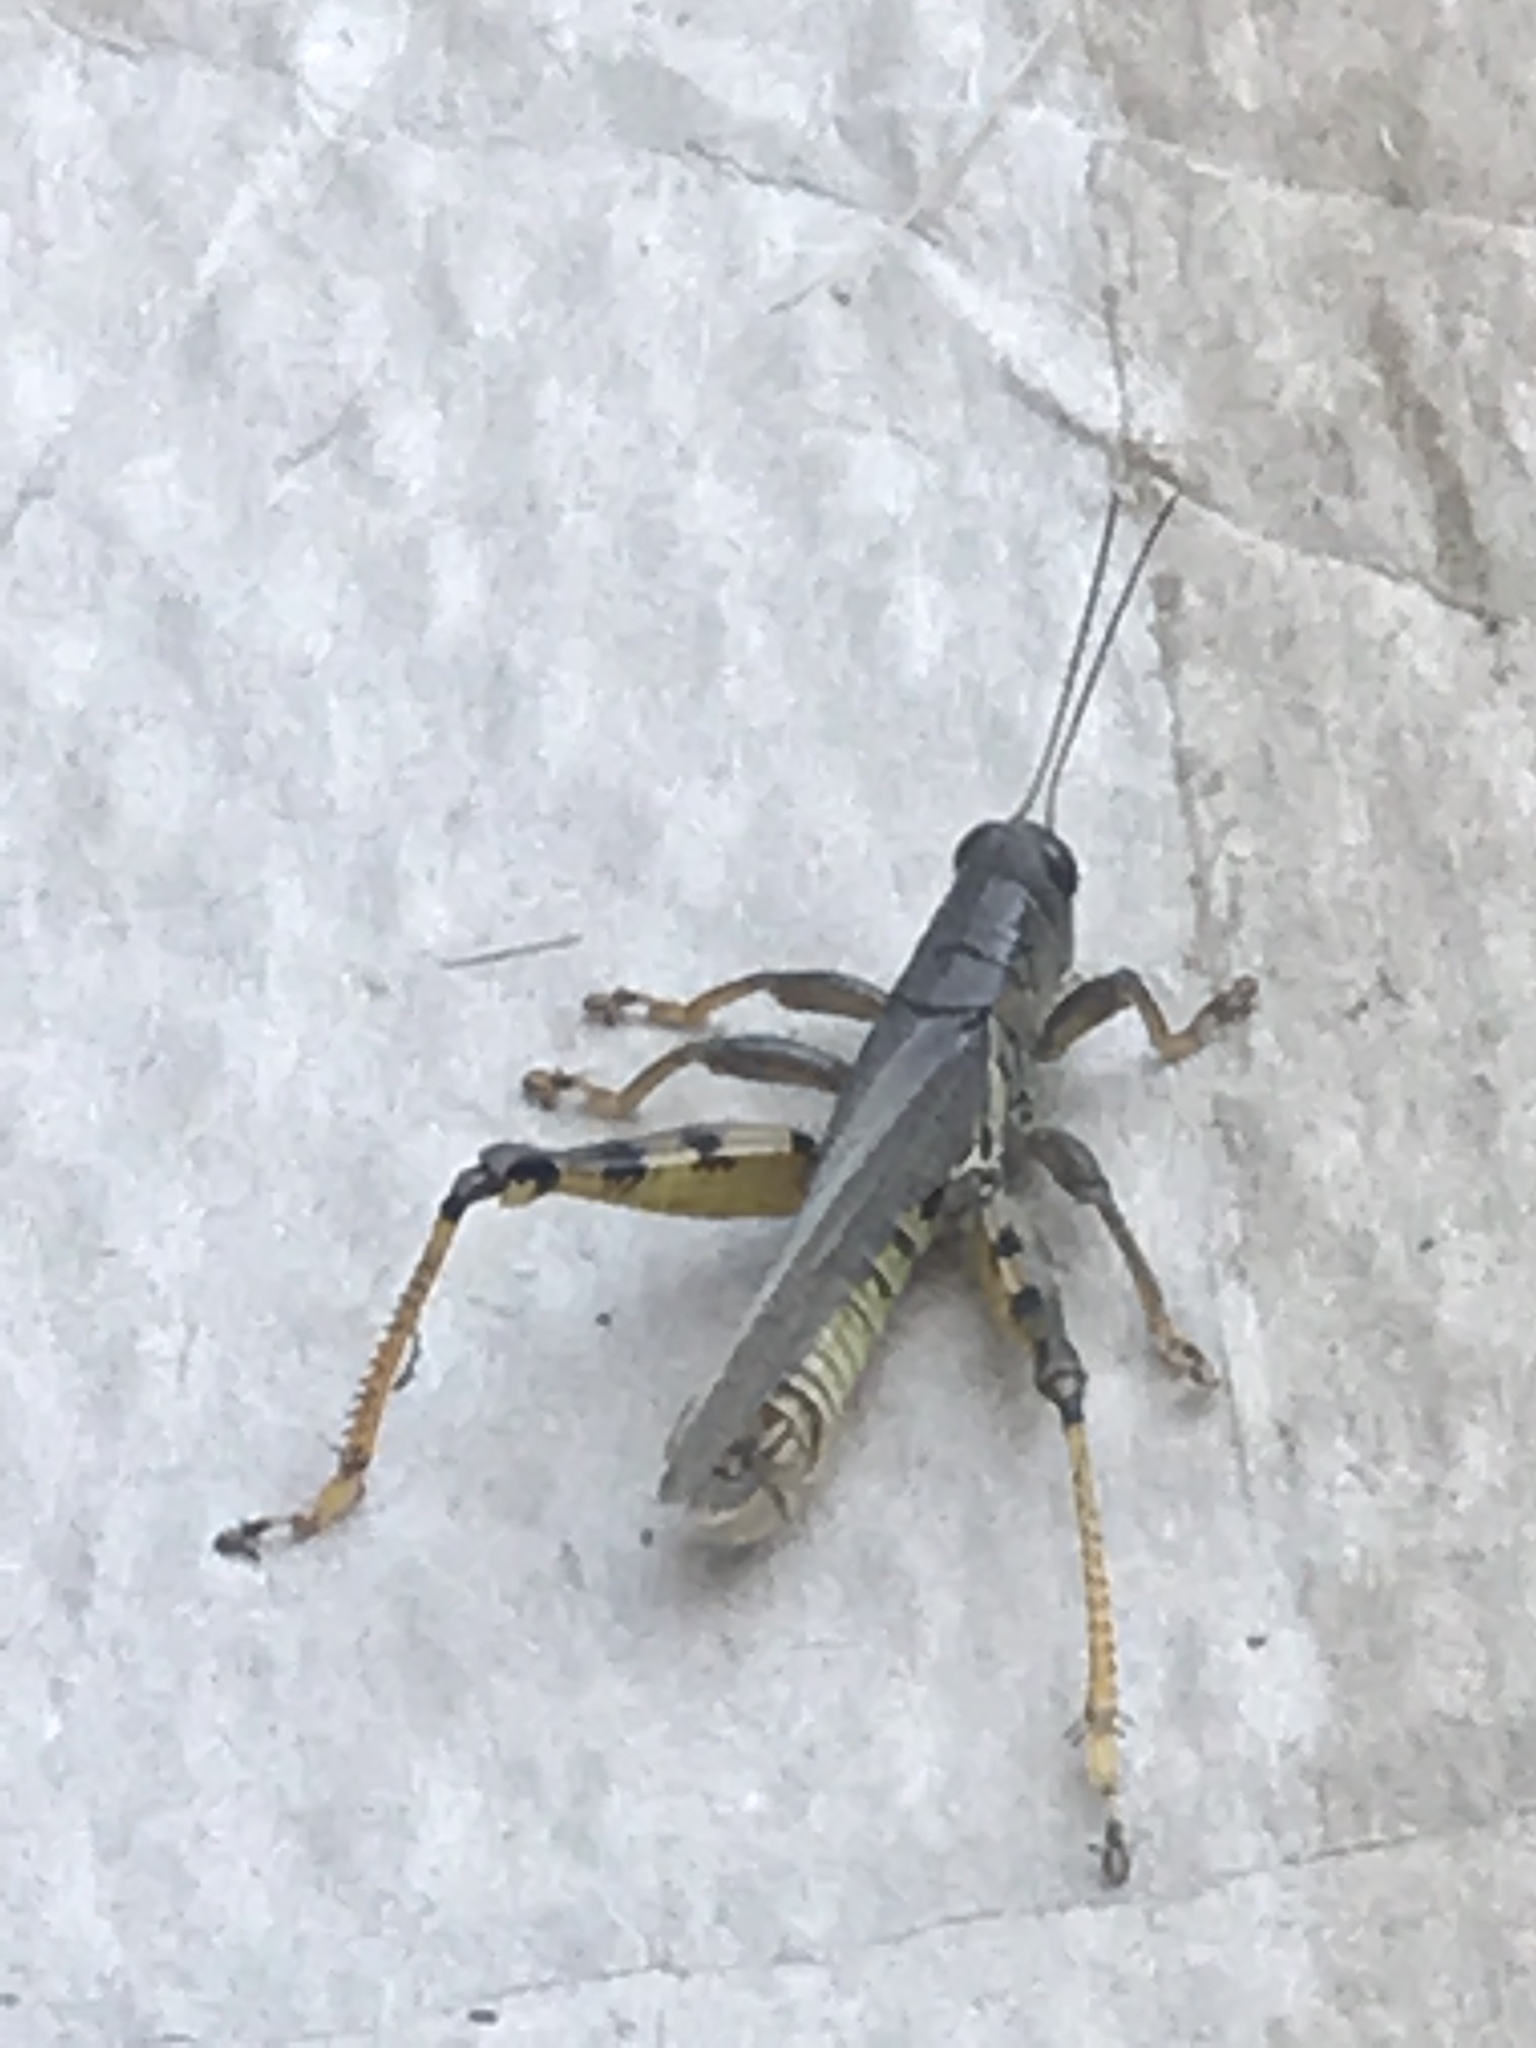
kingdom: Animalia
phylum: Arthropoda
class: Insecta
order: Orthoptera
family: Acrididae
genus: Melanoplus
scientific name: Melanoplus differentialis
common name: Differential grasshopper
